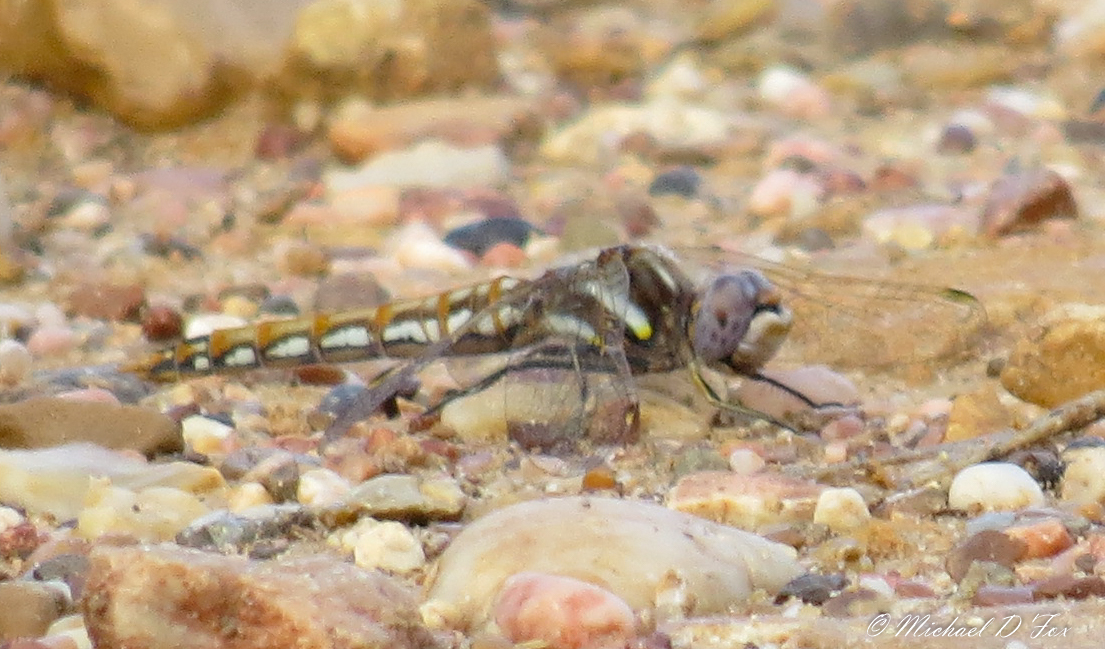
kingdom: Animalia
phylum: Arthropoda
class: Insecta
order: Odonata
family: Libellulidae
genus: Sympetrum
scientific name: Sympetrum corruptum
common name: Variegated meadowhawk
